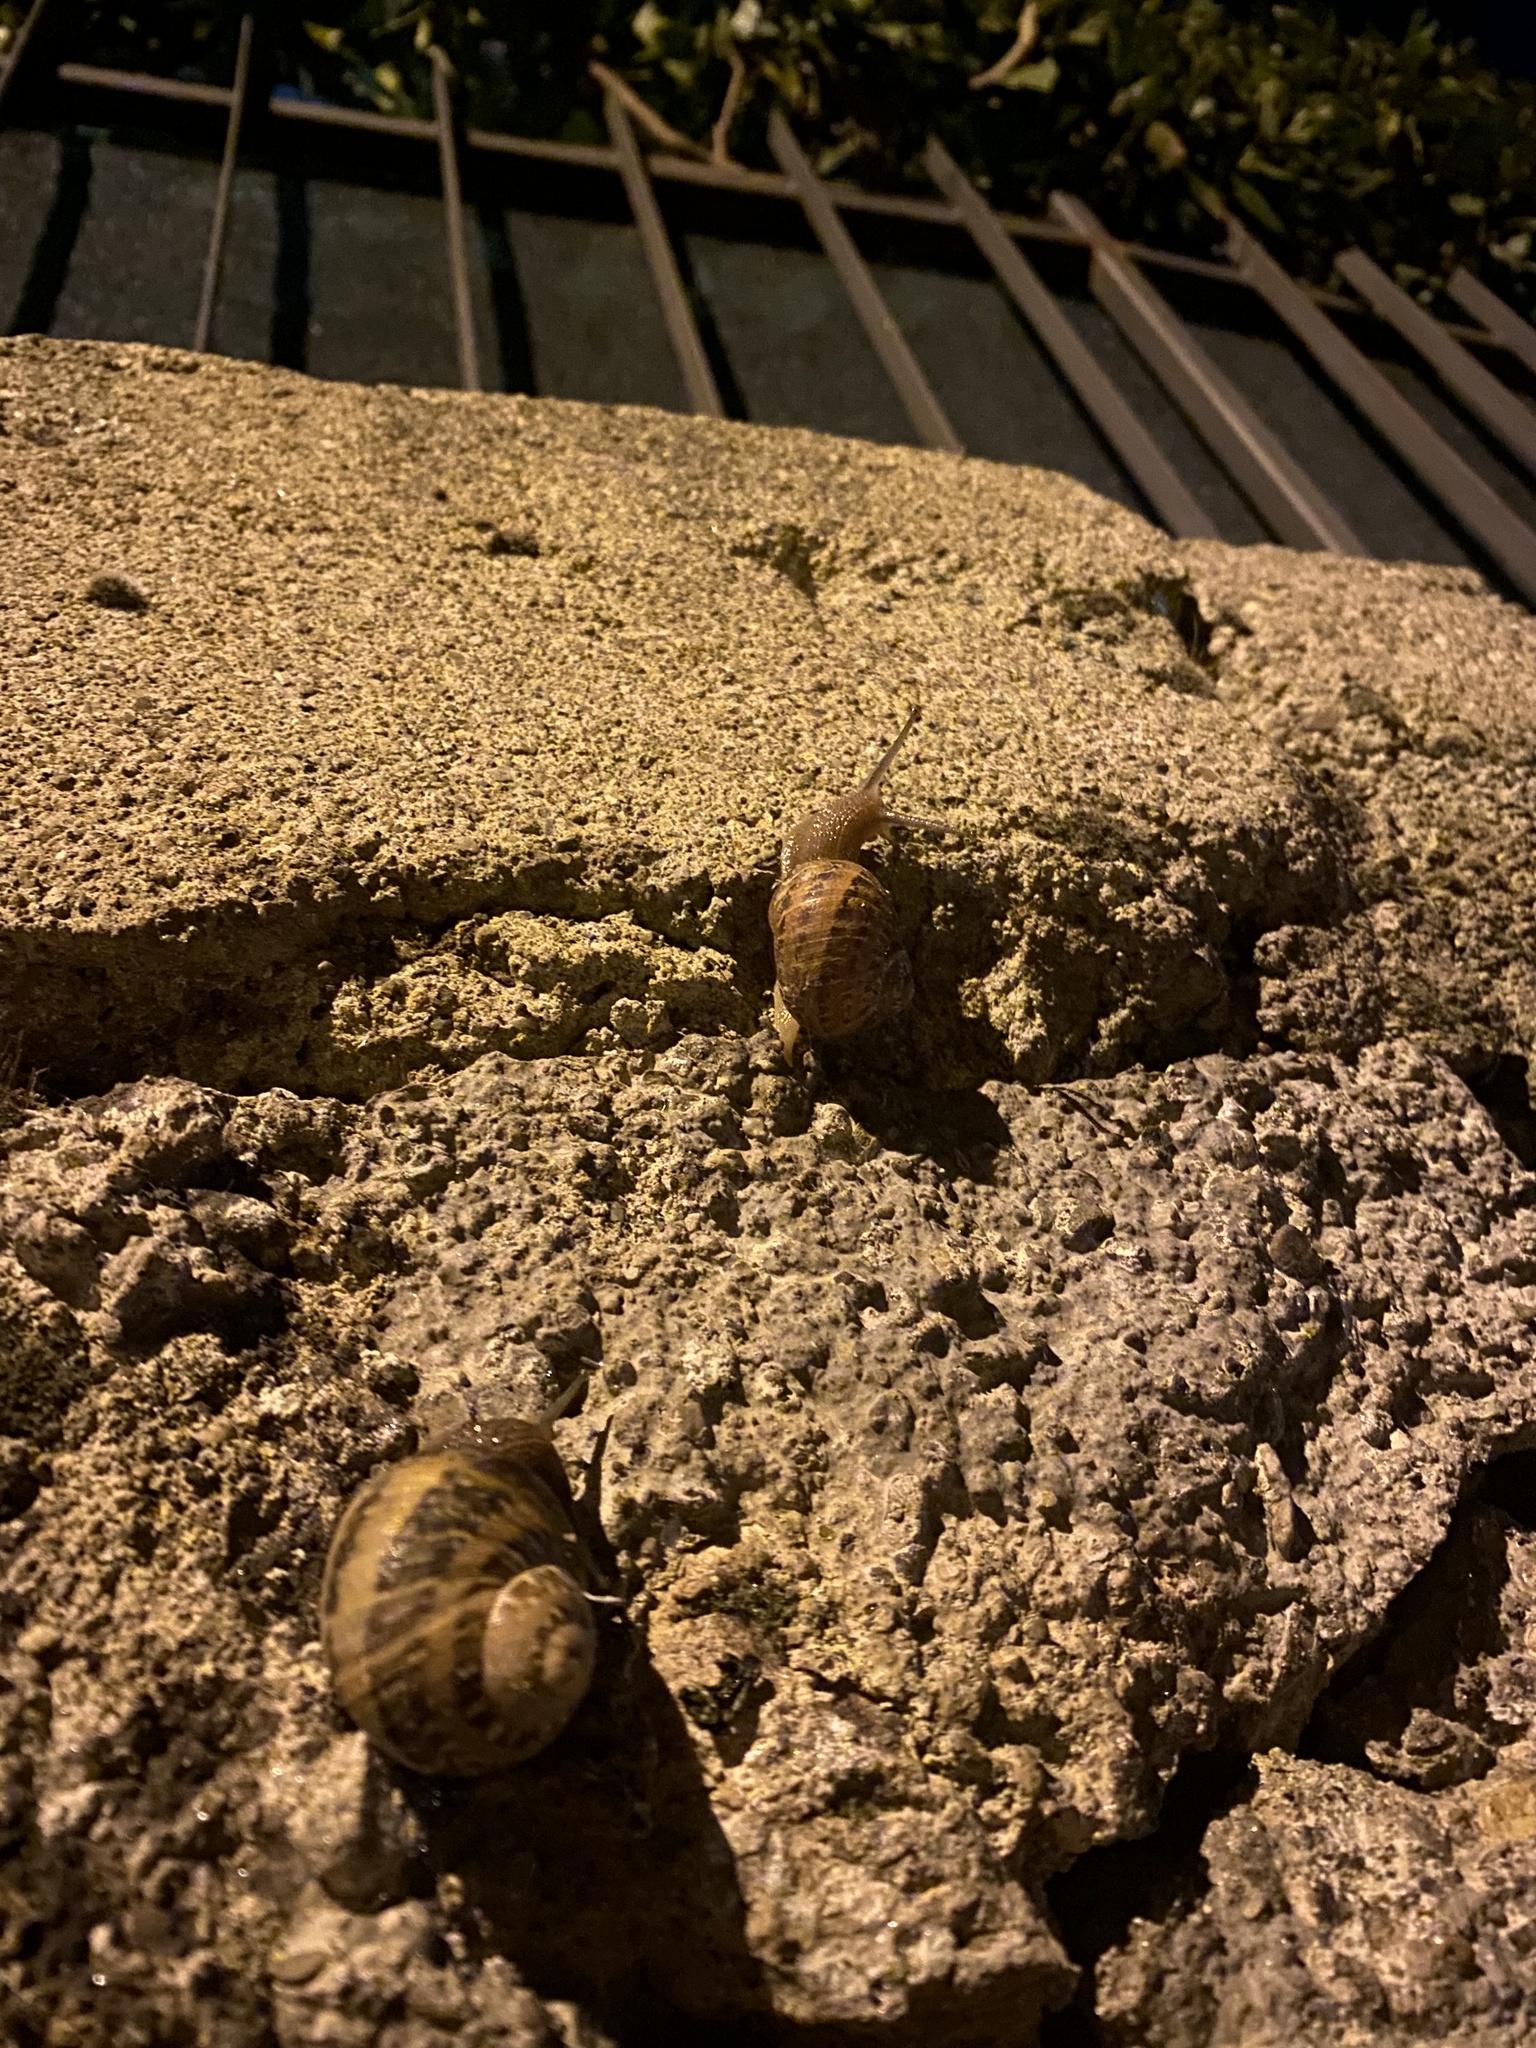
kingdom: Animalia
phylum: Mollusca
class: Gastropoda
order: Stylommatophora
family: Helicidae
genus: Cornu
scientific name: Cornu aspersum
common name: Brown garden snail
